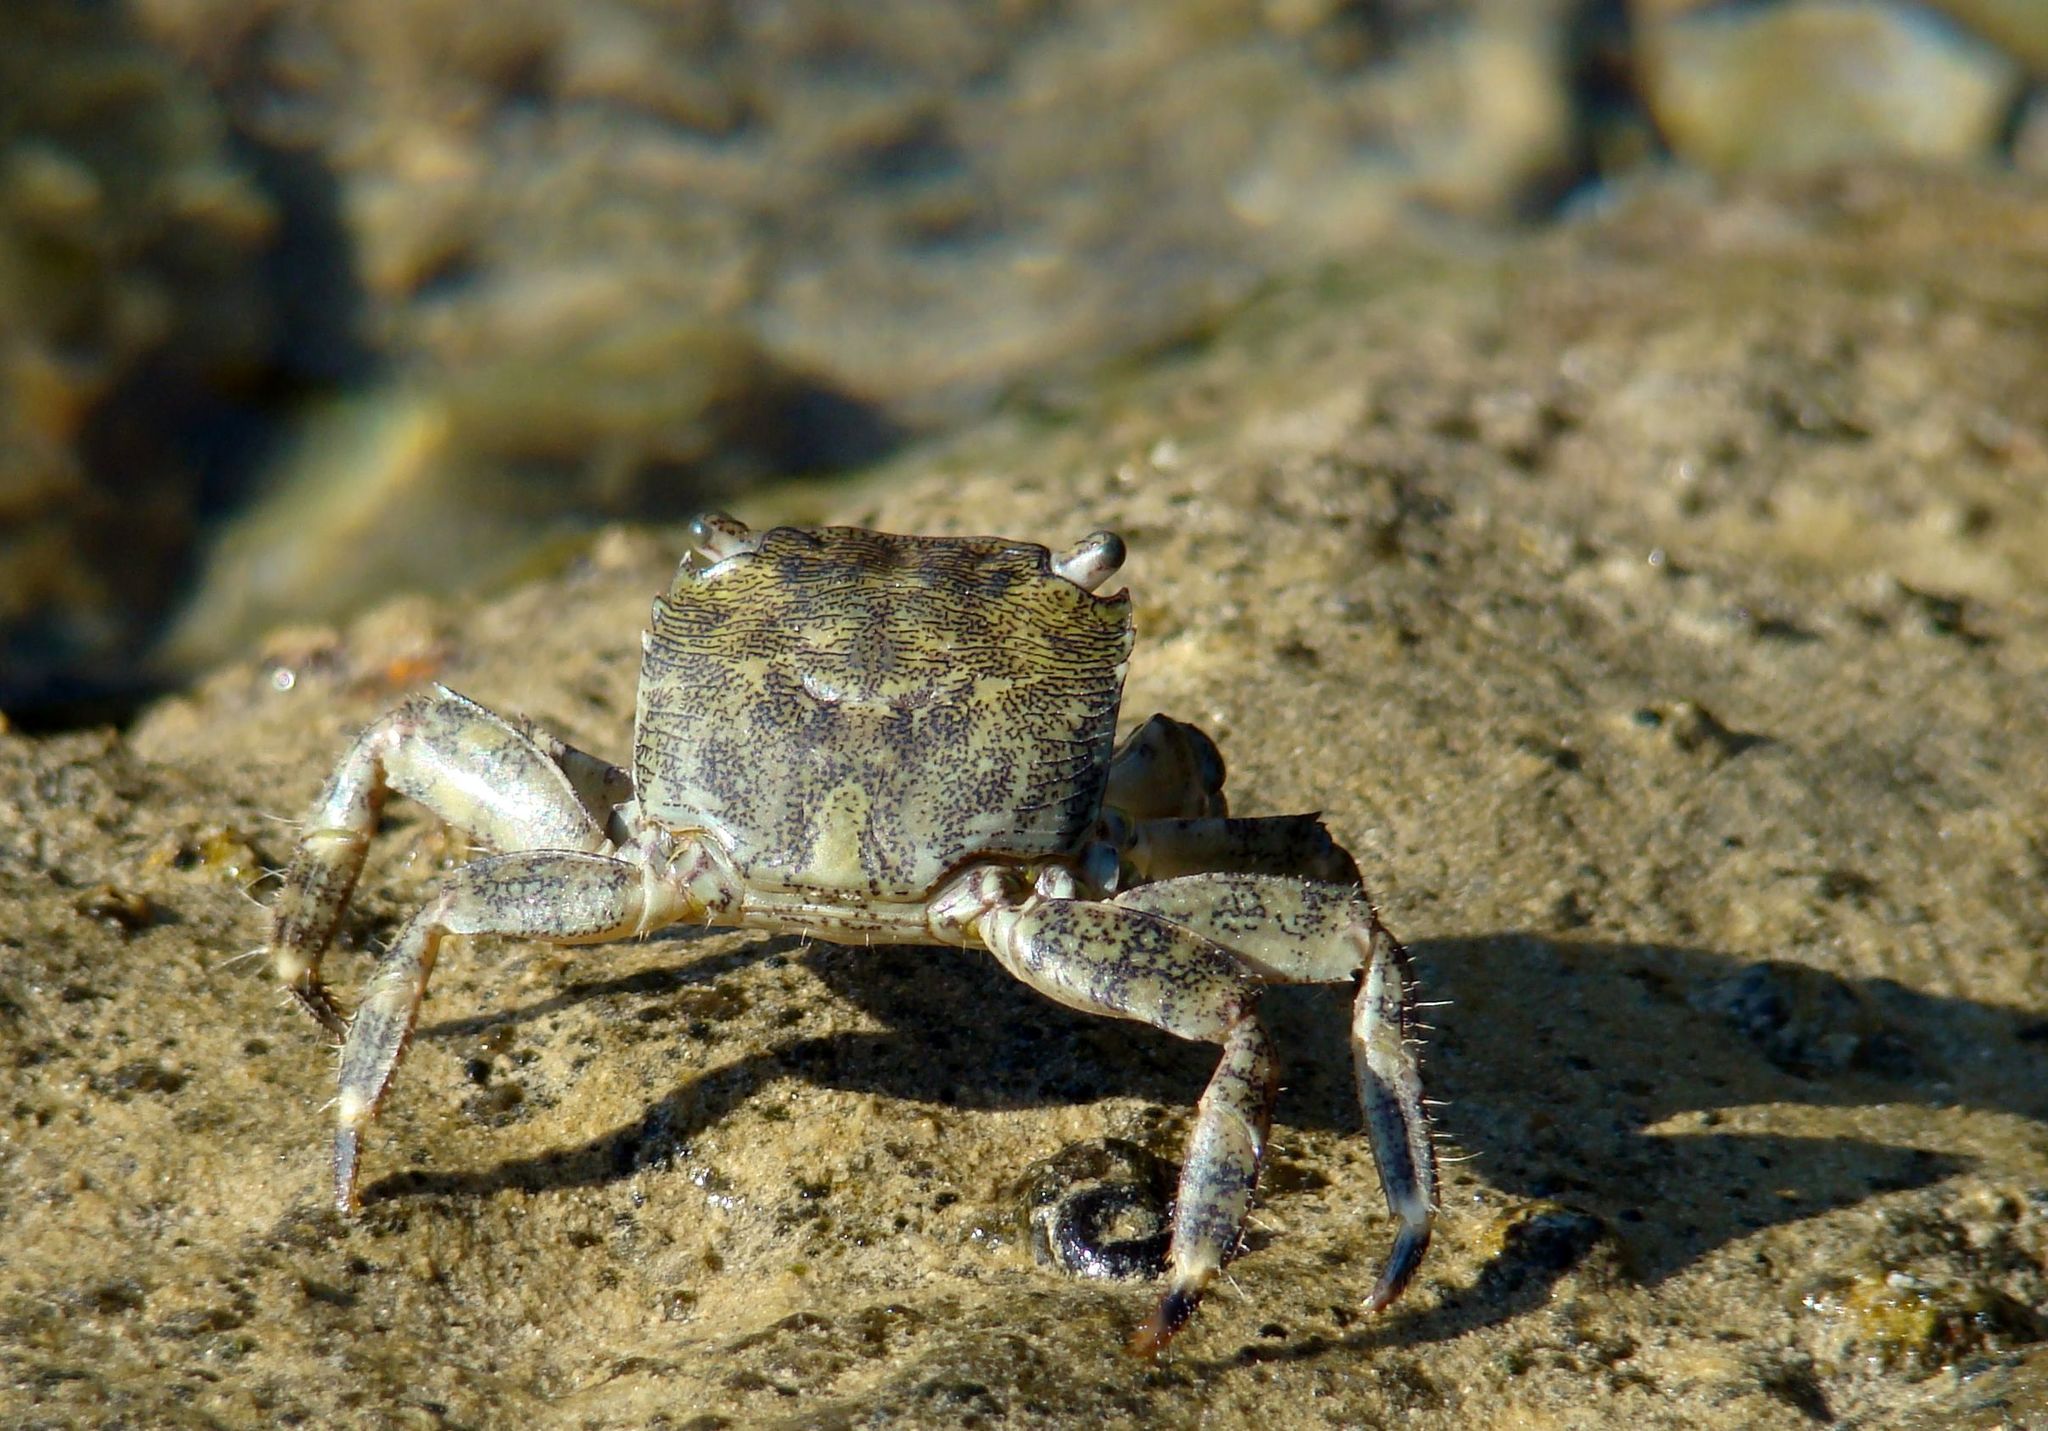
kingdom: Animalia
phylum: Arthropoda
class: Malacostraca
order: Decapoda
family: Grapsidae
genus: Pachygrapsus
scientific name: Pachygrapsus marmoratus
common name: Marbled rock crab
